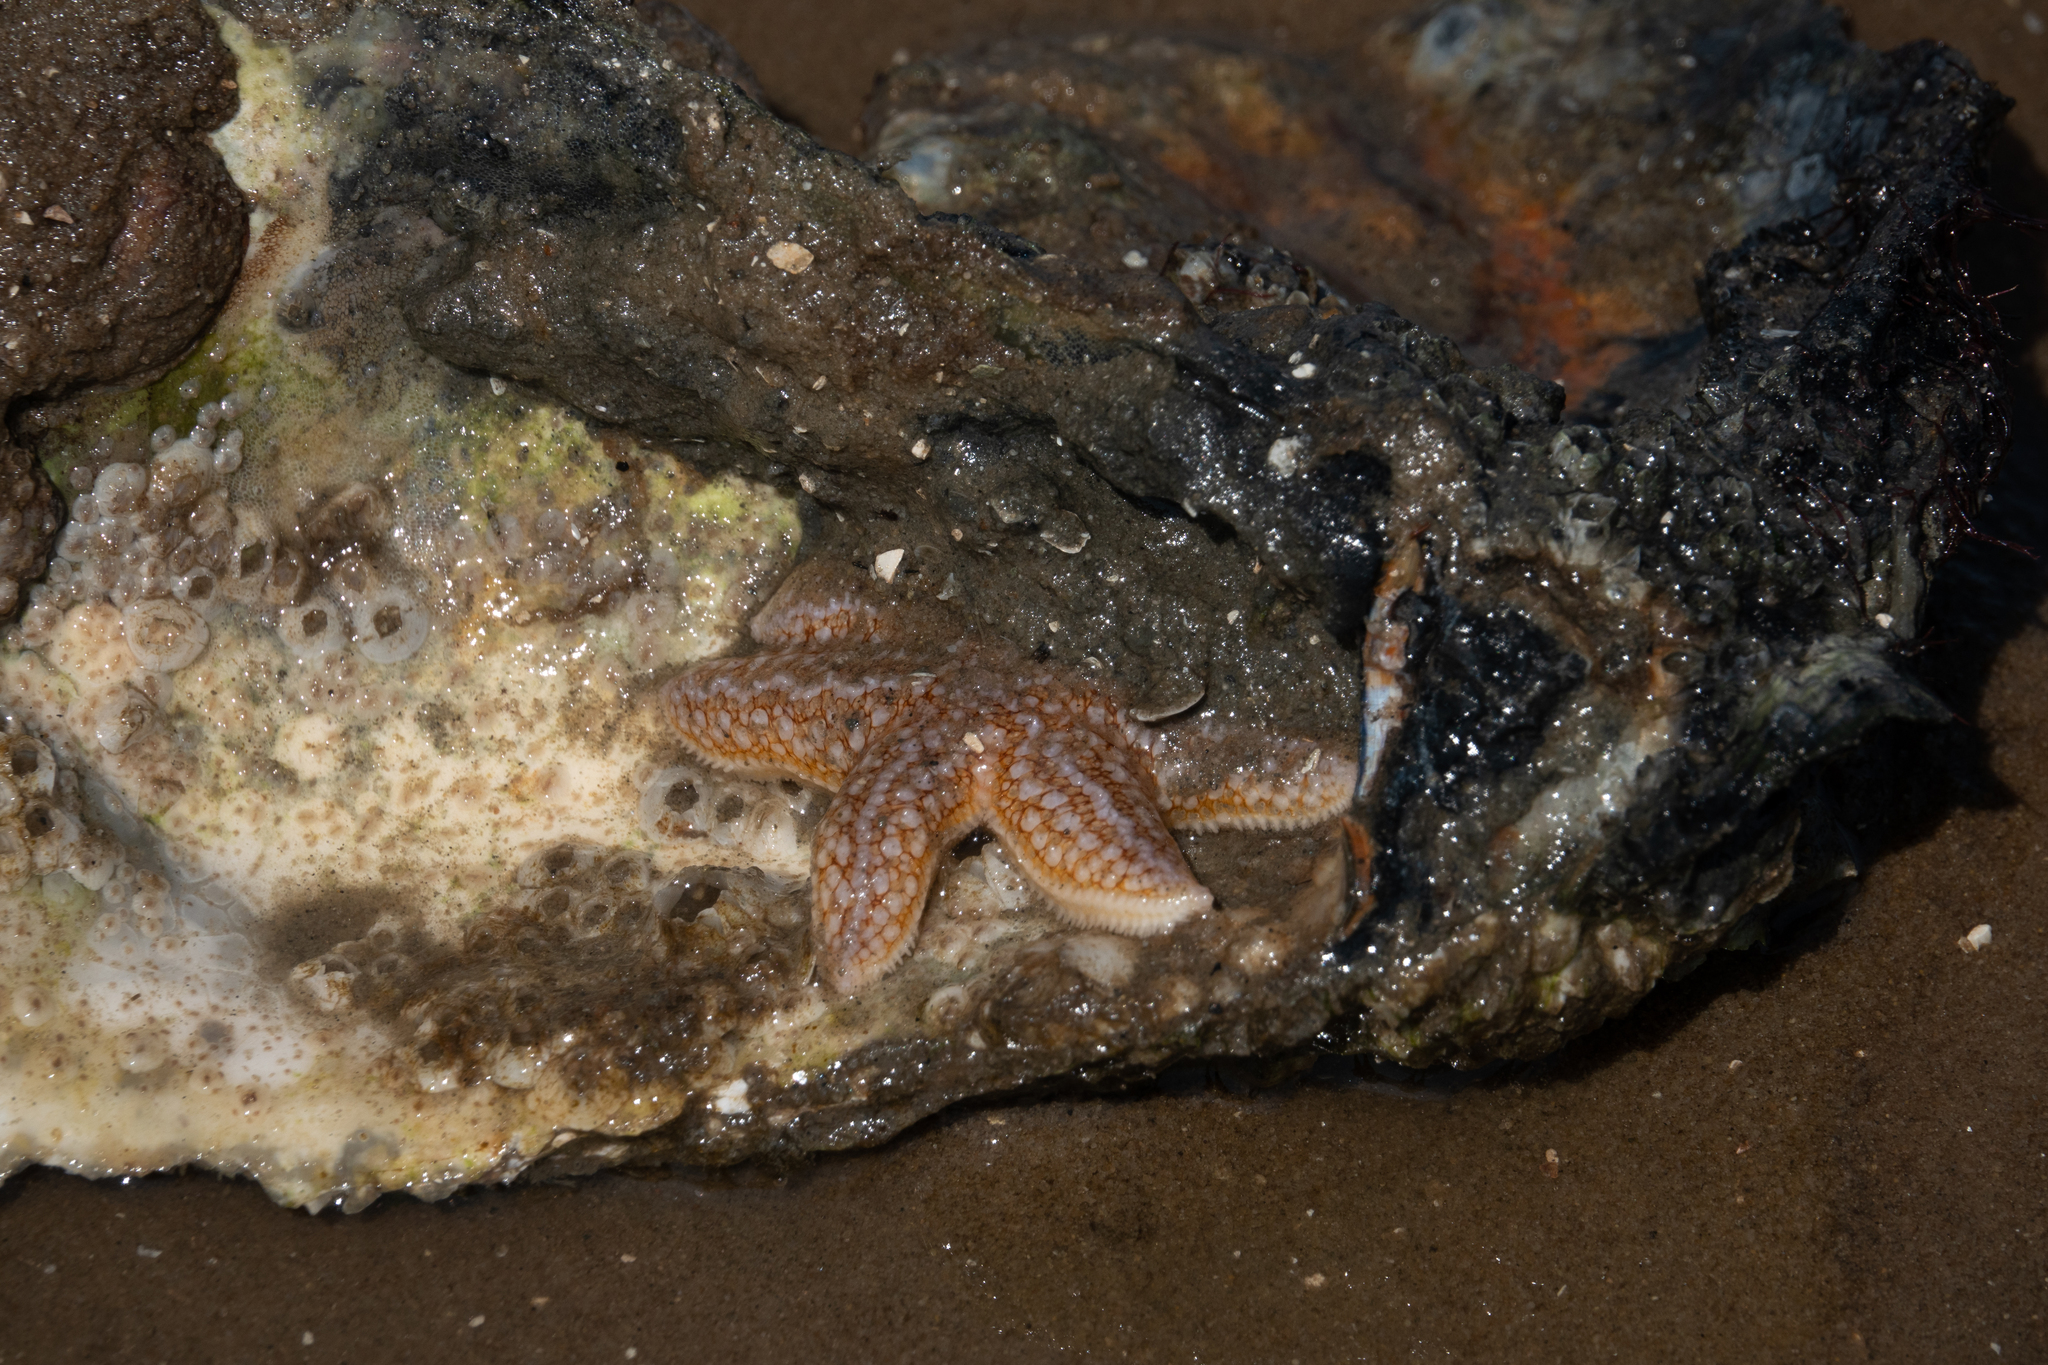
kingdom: Animalia
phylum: Echinodermata
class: Asteroidea
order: Forcipulatida
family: Asteriidae
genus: Asterias
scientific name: Asterias rubens
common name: Common starfish
